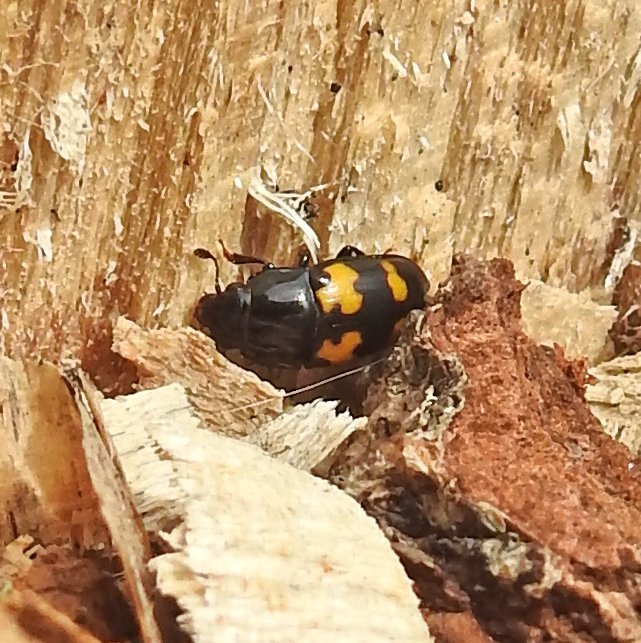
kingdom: Animalia
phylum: Arthropoda
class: Insecta
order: Coleoptera
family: Nitidulidae
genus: Glischrochilus
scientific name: Glischrochilus fasciatus
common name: Picnic beetle
